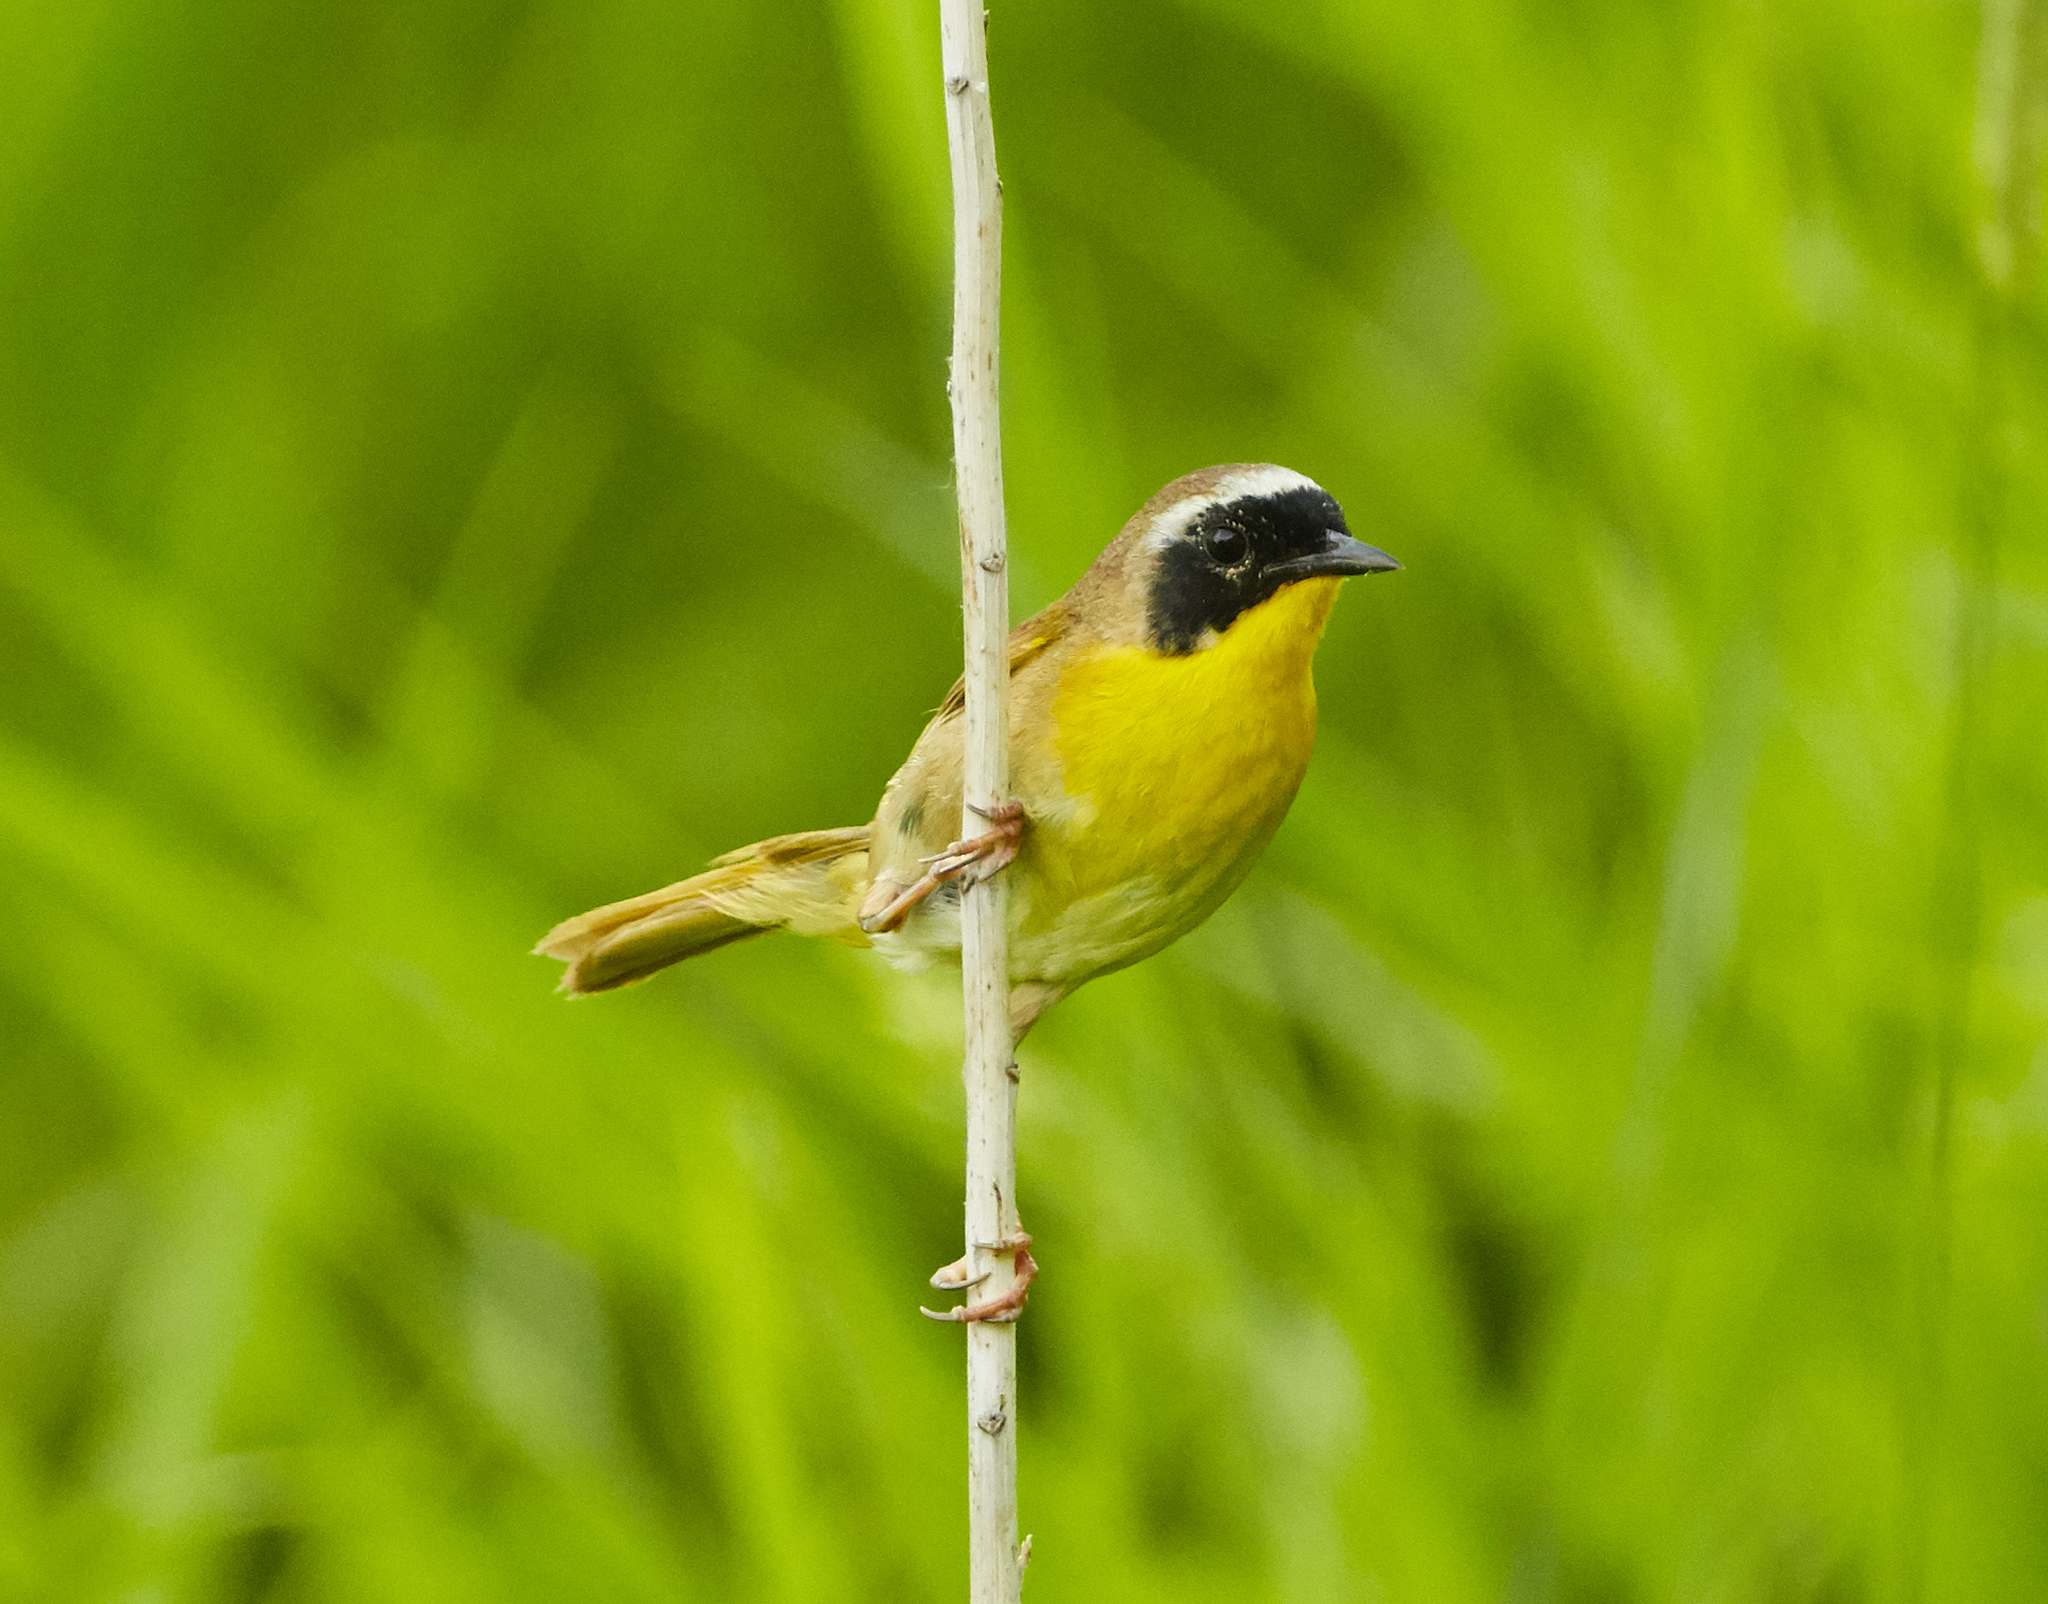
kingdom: Animalia
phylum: Chordata
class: Aves
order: Passeriformes
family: Parulidae
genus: Geothlypis
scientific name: Geothlypis trichas
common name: Common yellowthroat
